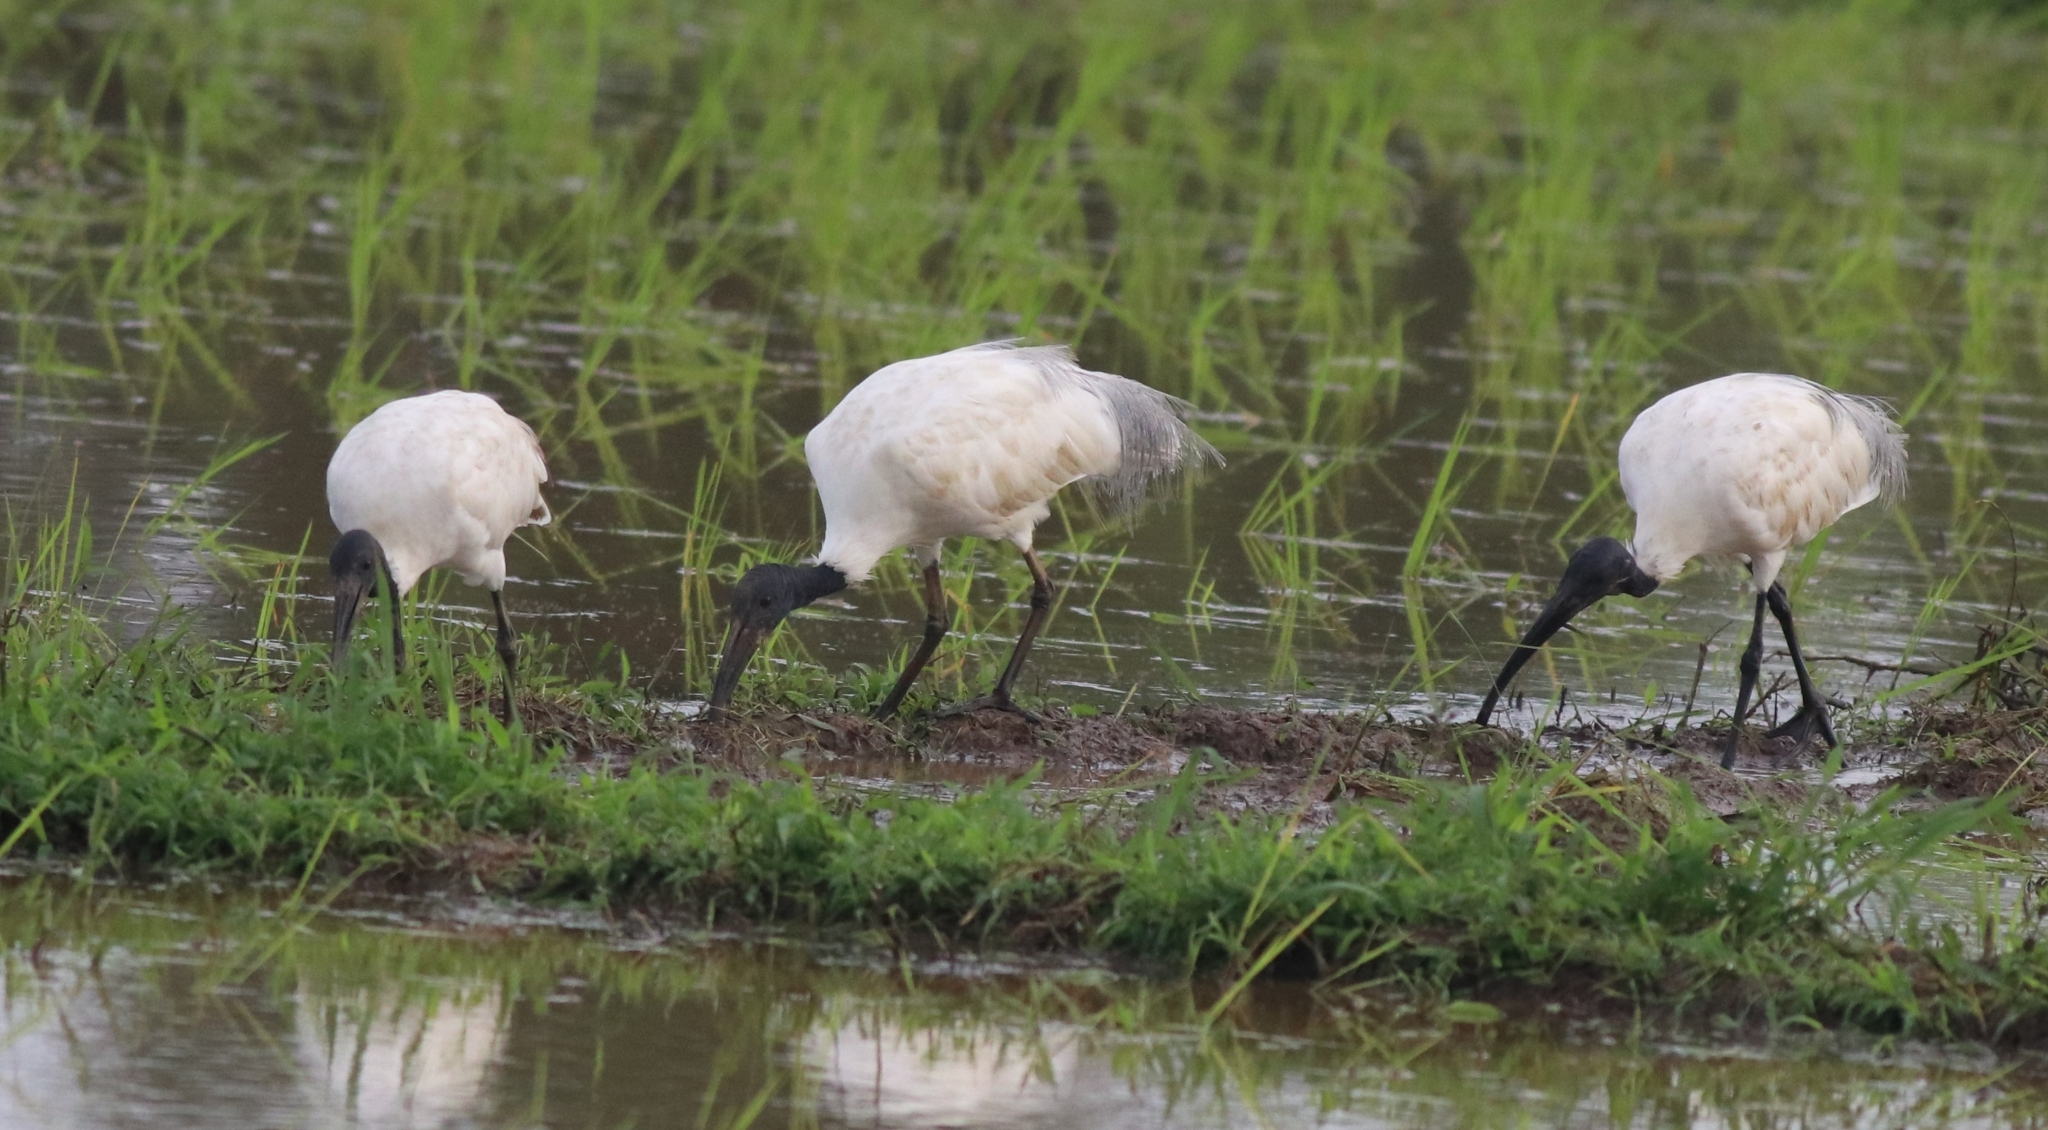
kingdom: Animalia
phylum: Chordata
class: Aves
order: Pelecaniformes
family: Threskiornithidae
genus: Threskiornis
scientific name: Threskiornis melanocephalus
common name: Black-headed ibis
